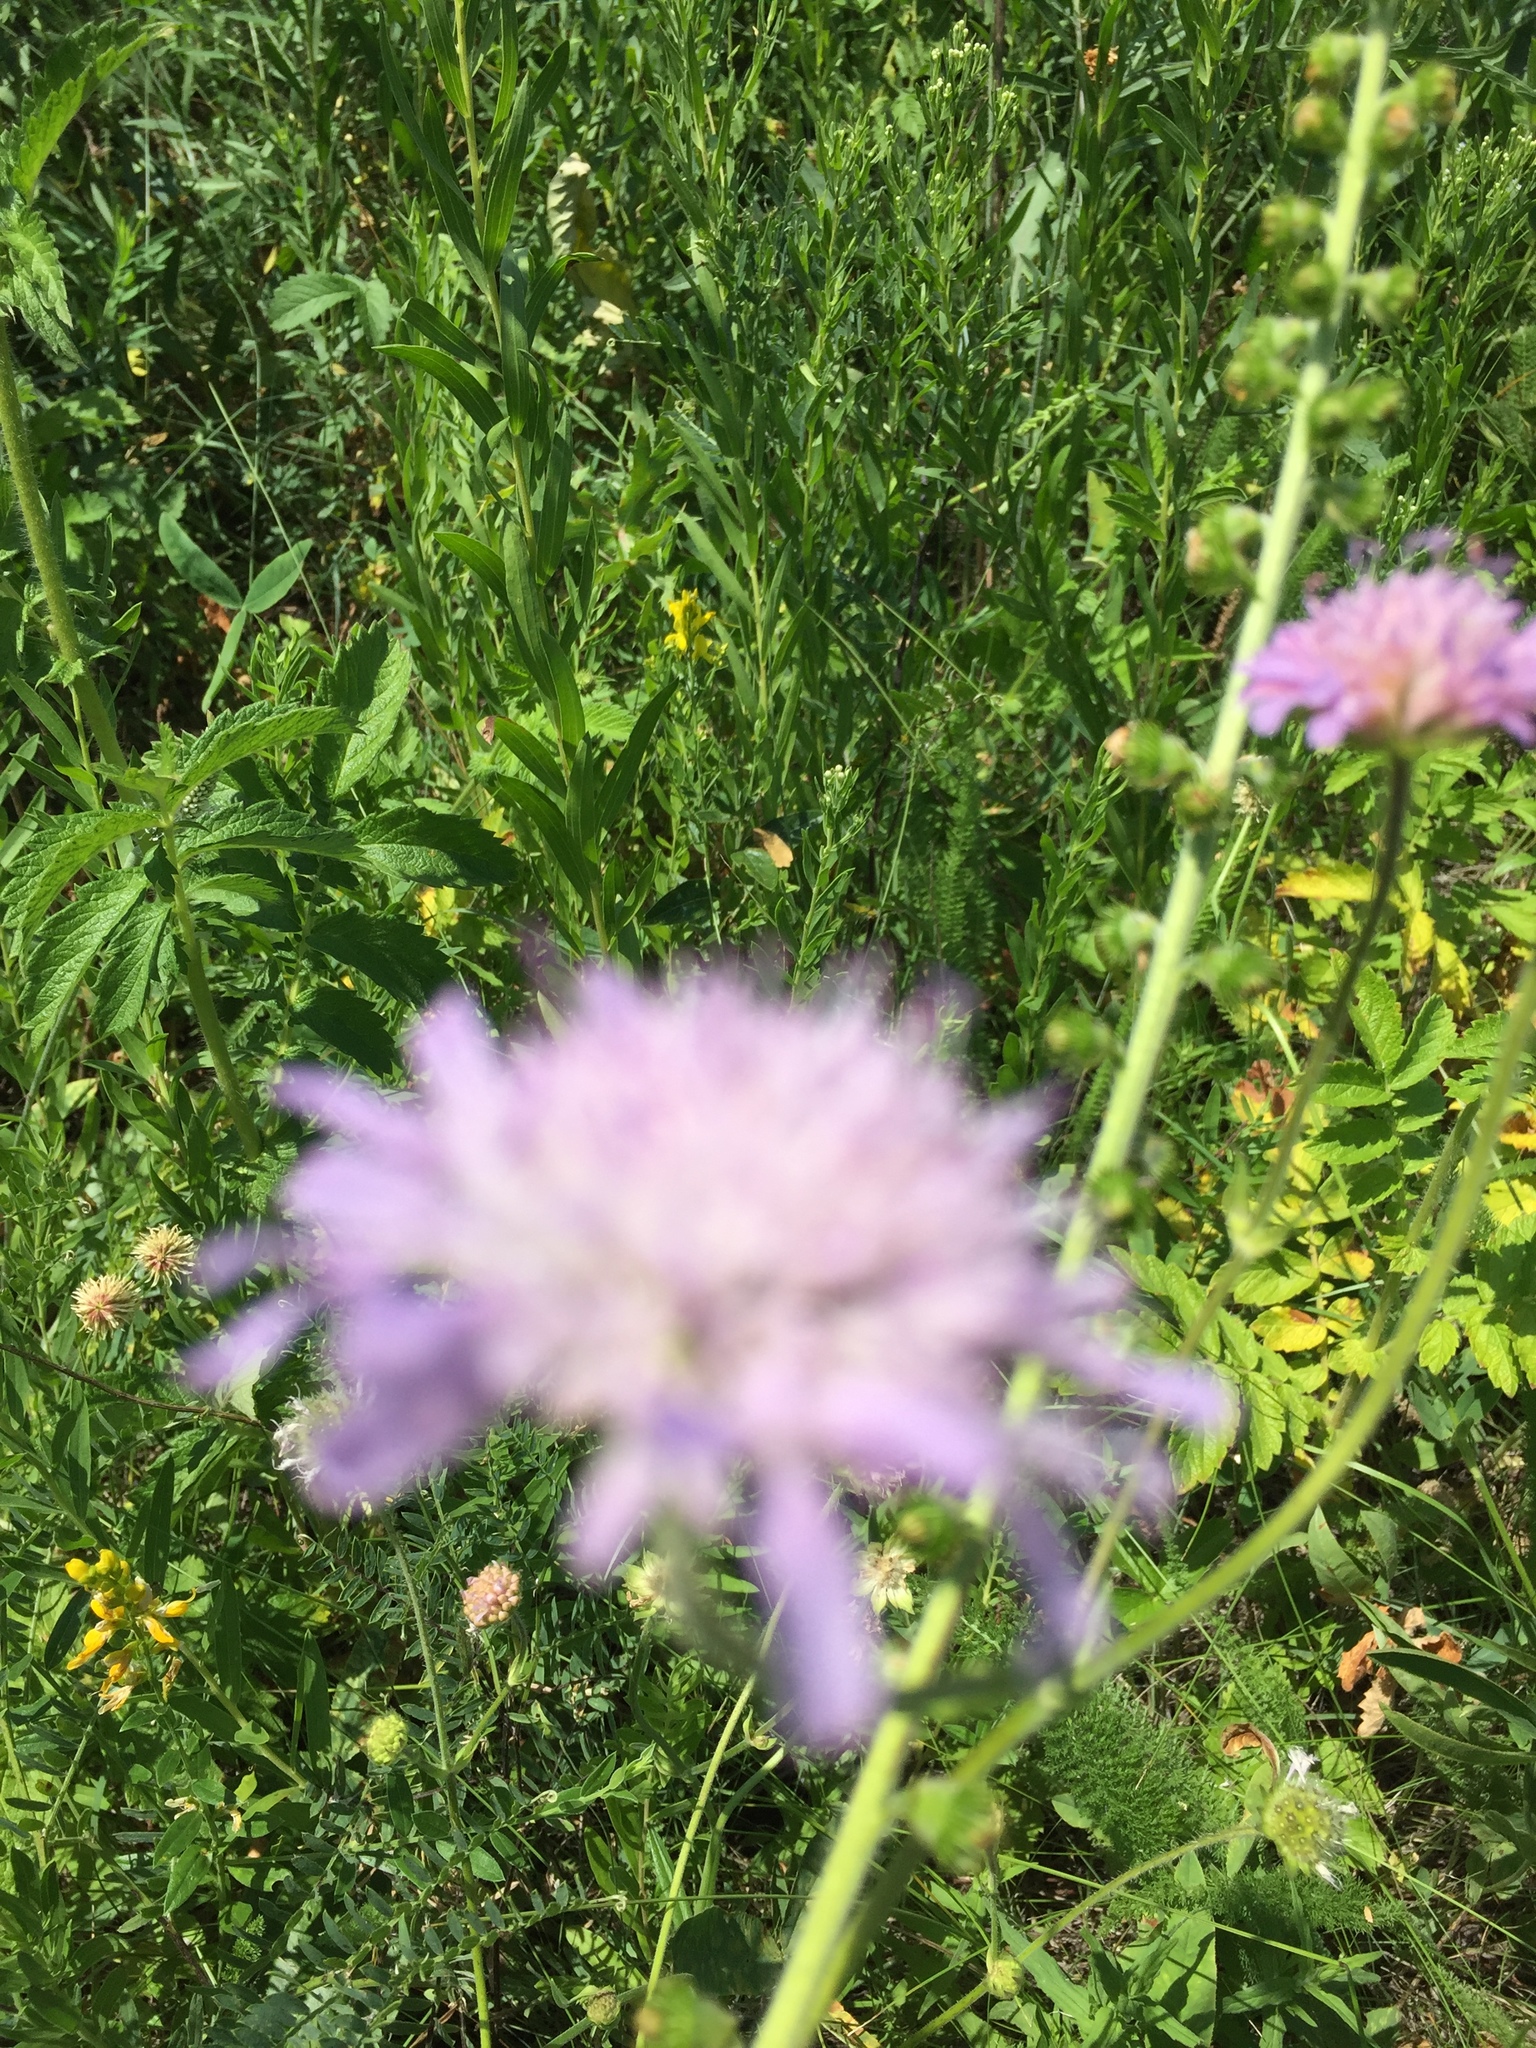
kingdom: Plantae
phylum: Tracheophyta
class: Magnoliopsida
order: Dipsacales
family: Caprifoliaceae
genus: Knautia
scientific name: Knautia arvensis
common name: Field scabiosa
